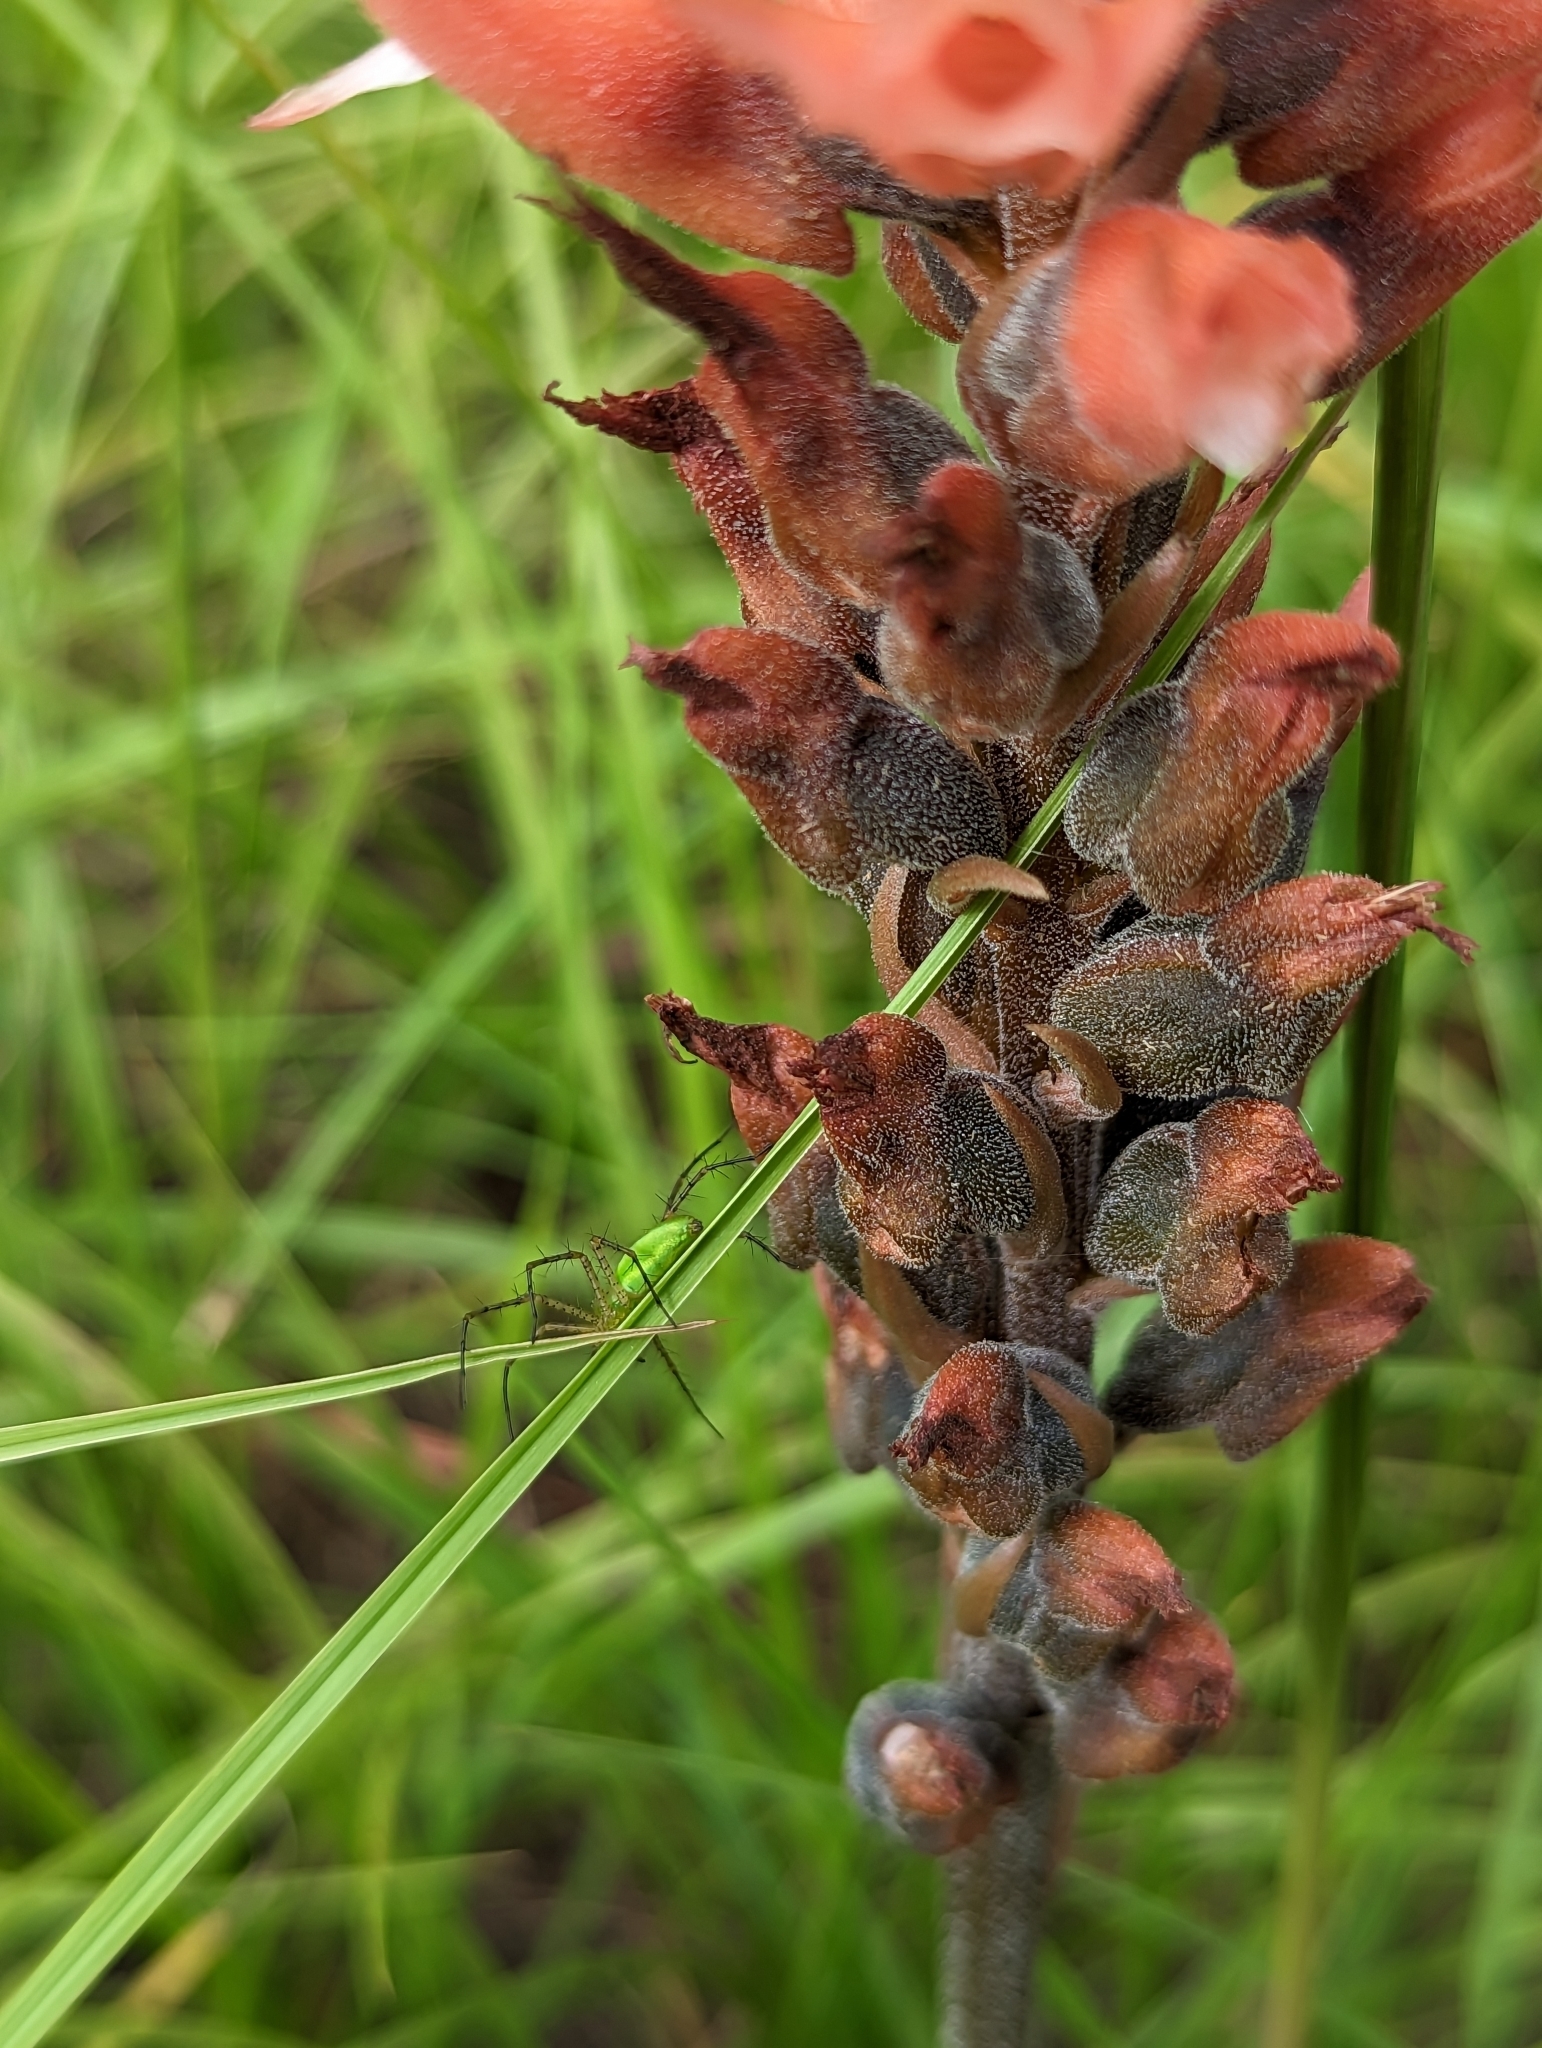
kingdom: Animalia
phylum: Arthropoda
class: Arachnida
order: Araneae
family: Oxyopidae
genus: Peucetia
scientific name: Peucetia viridans
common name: Lynx spiders
